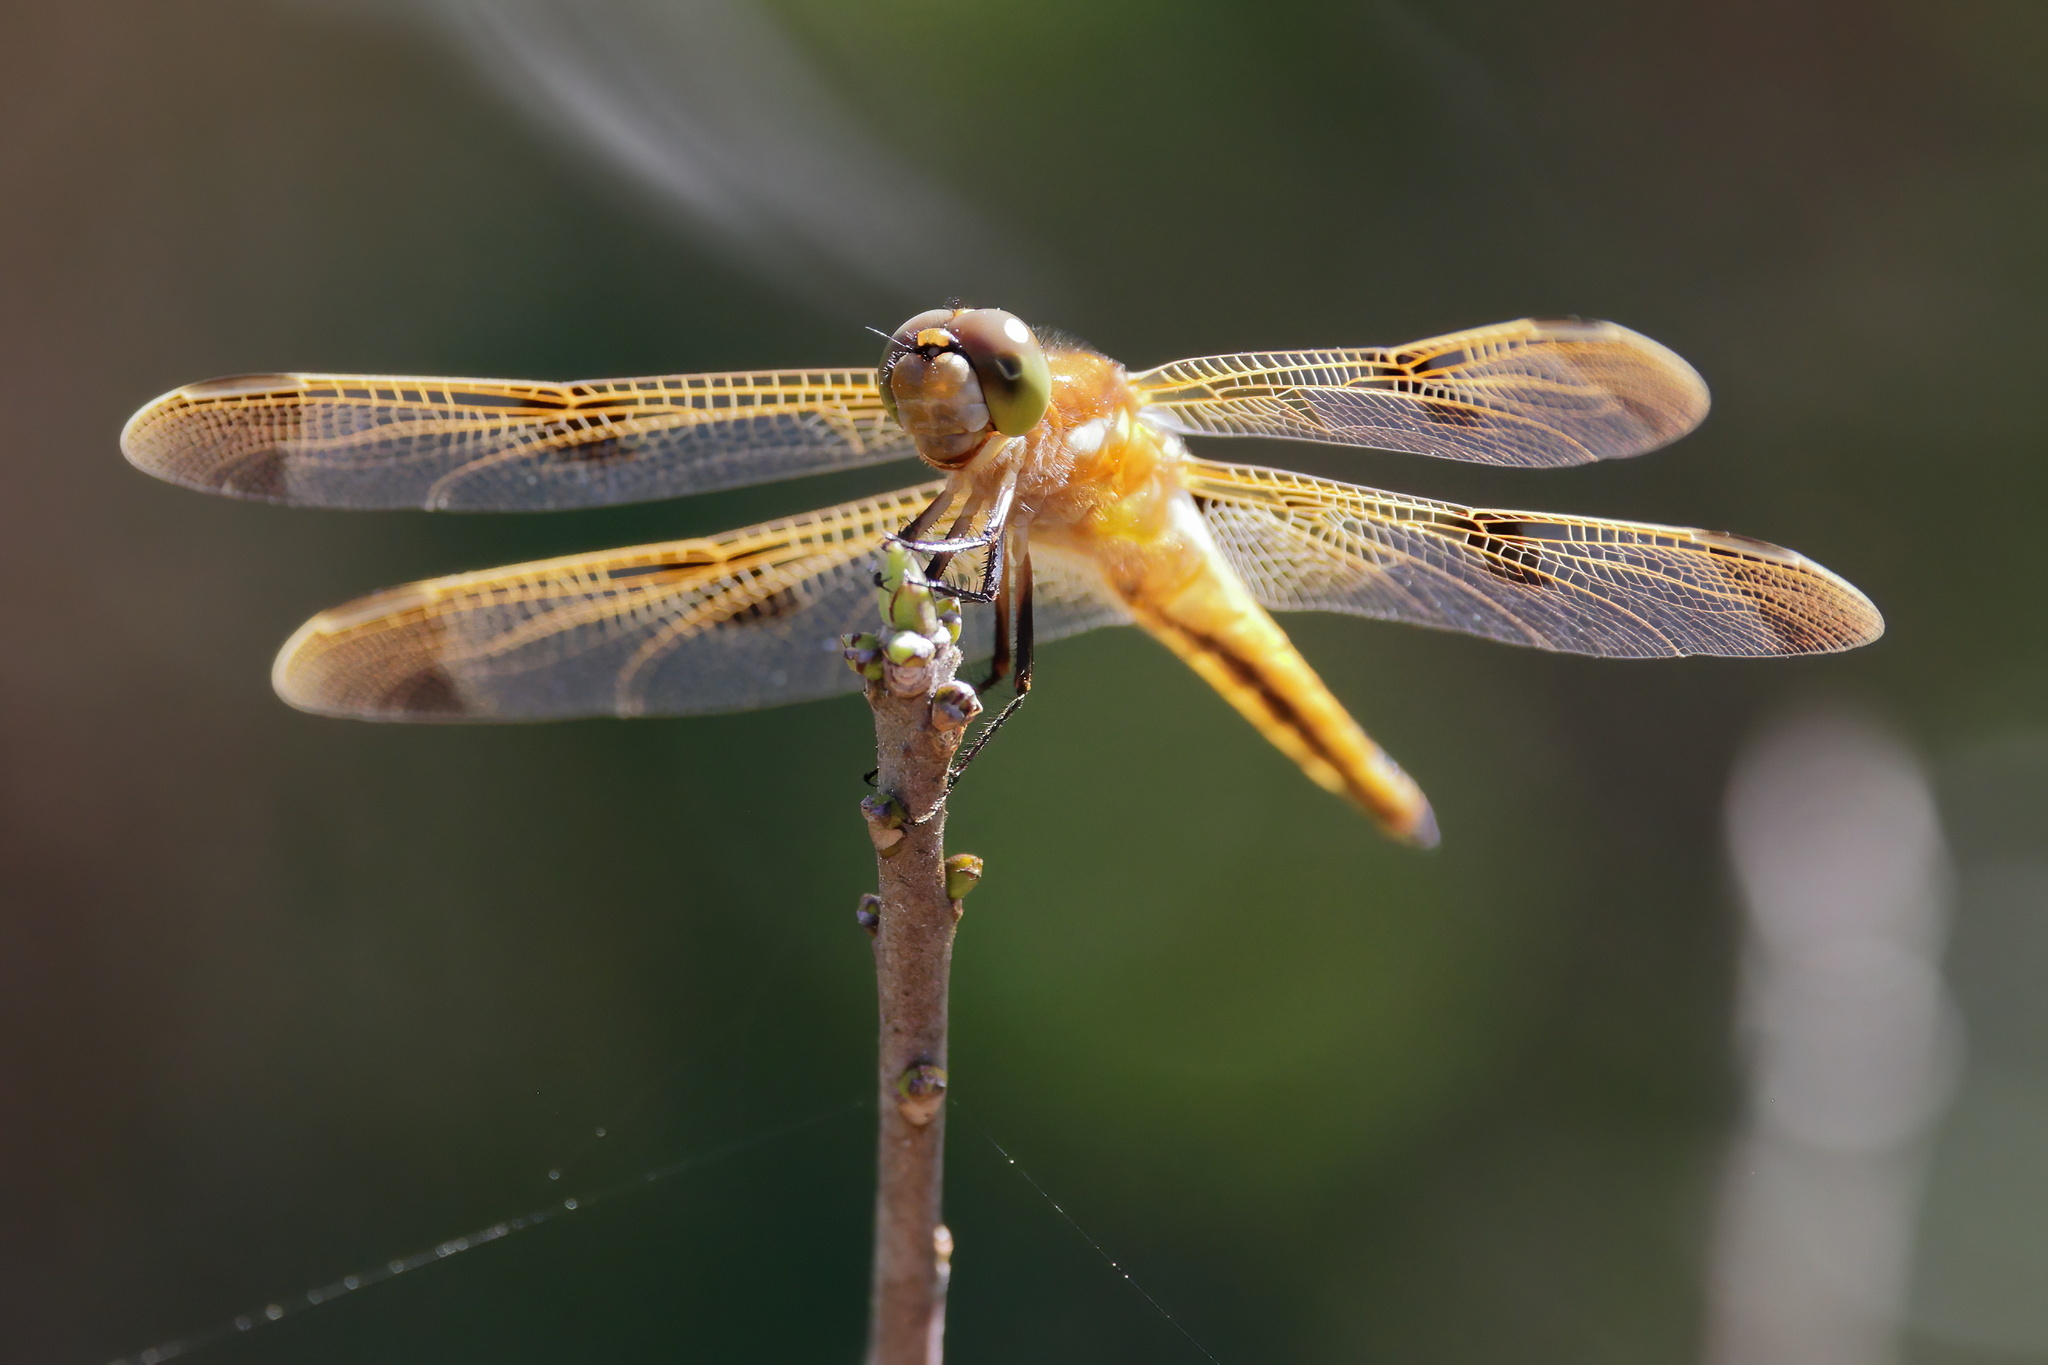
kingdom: Animalia
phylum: Arthropoda
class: Insecta
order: Odonata
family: Libellulidae
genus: Libellula
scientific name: Libellula semifasciata
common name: Painted skimmer
